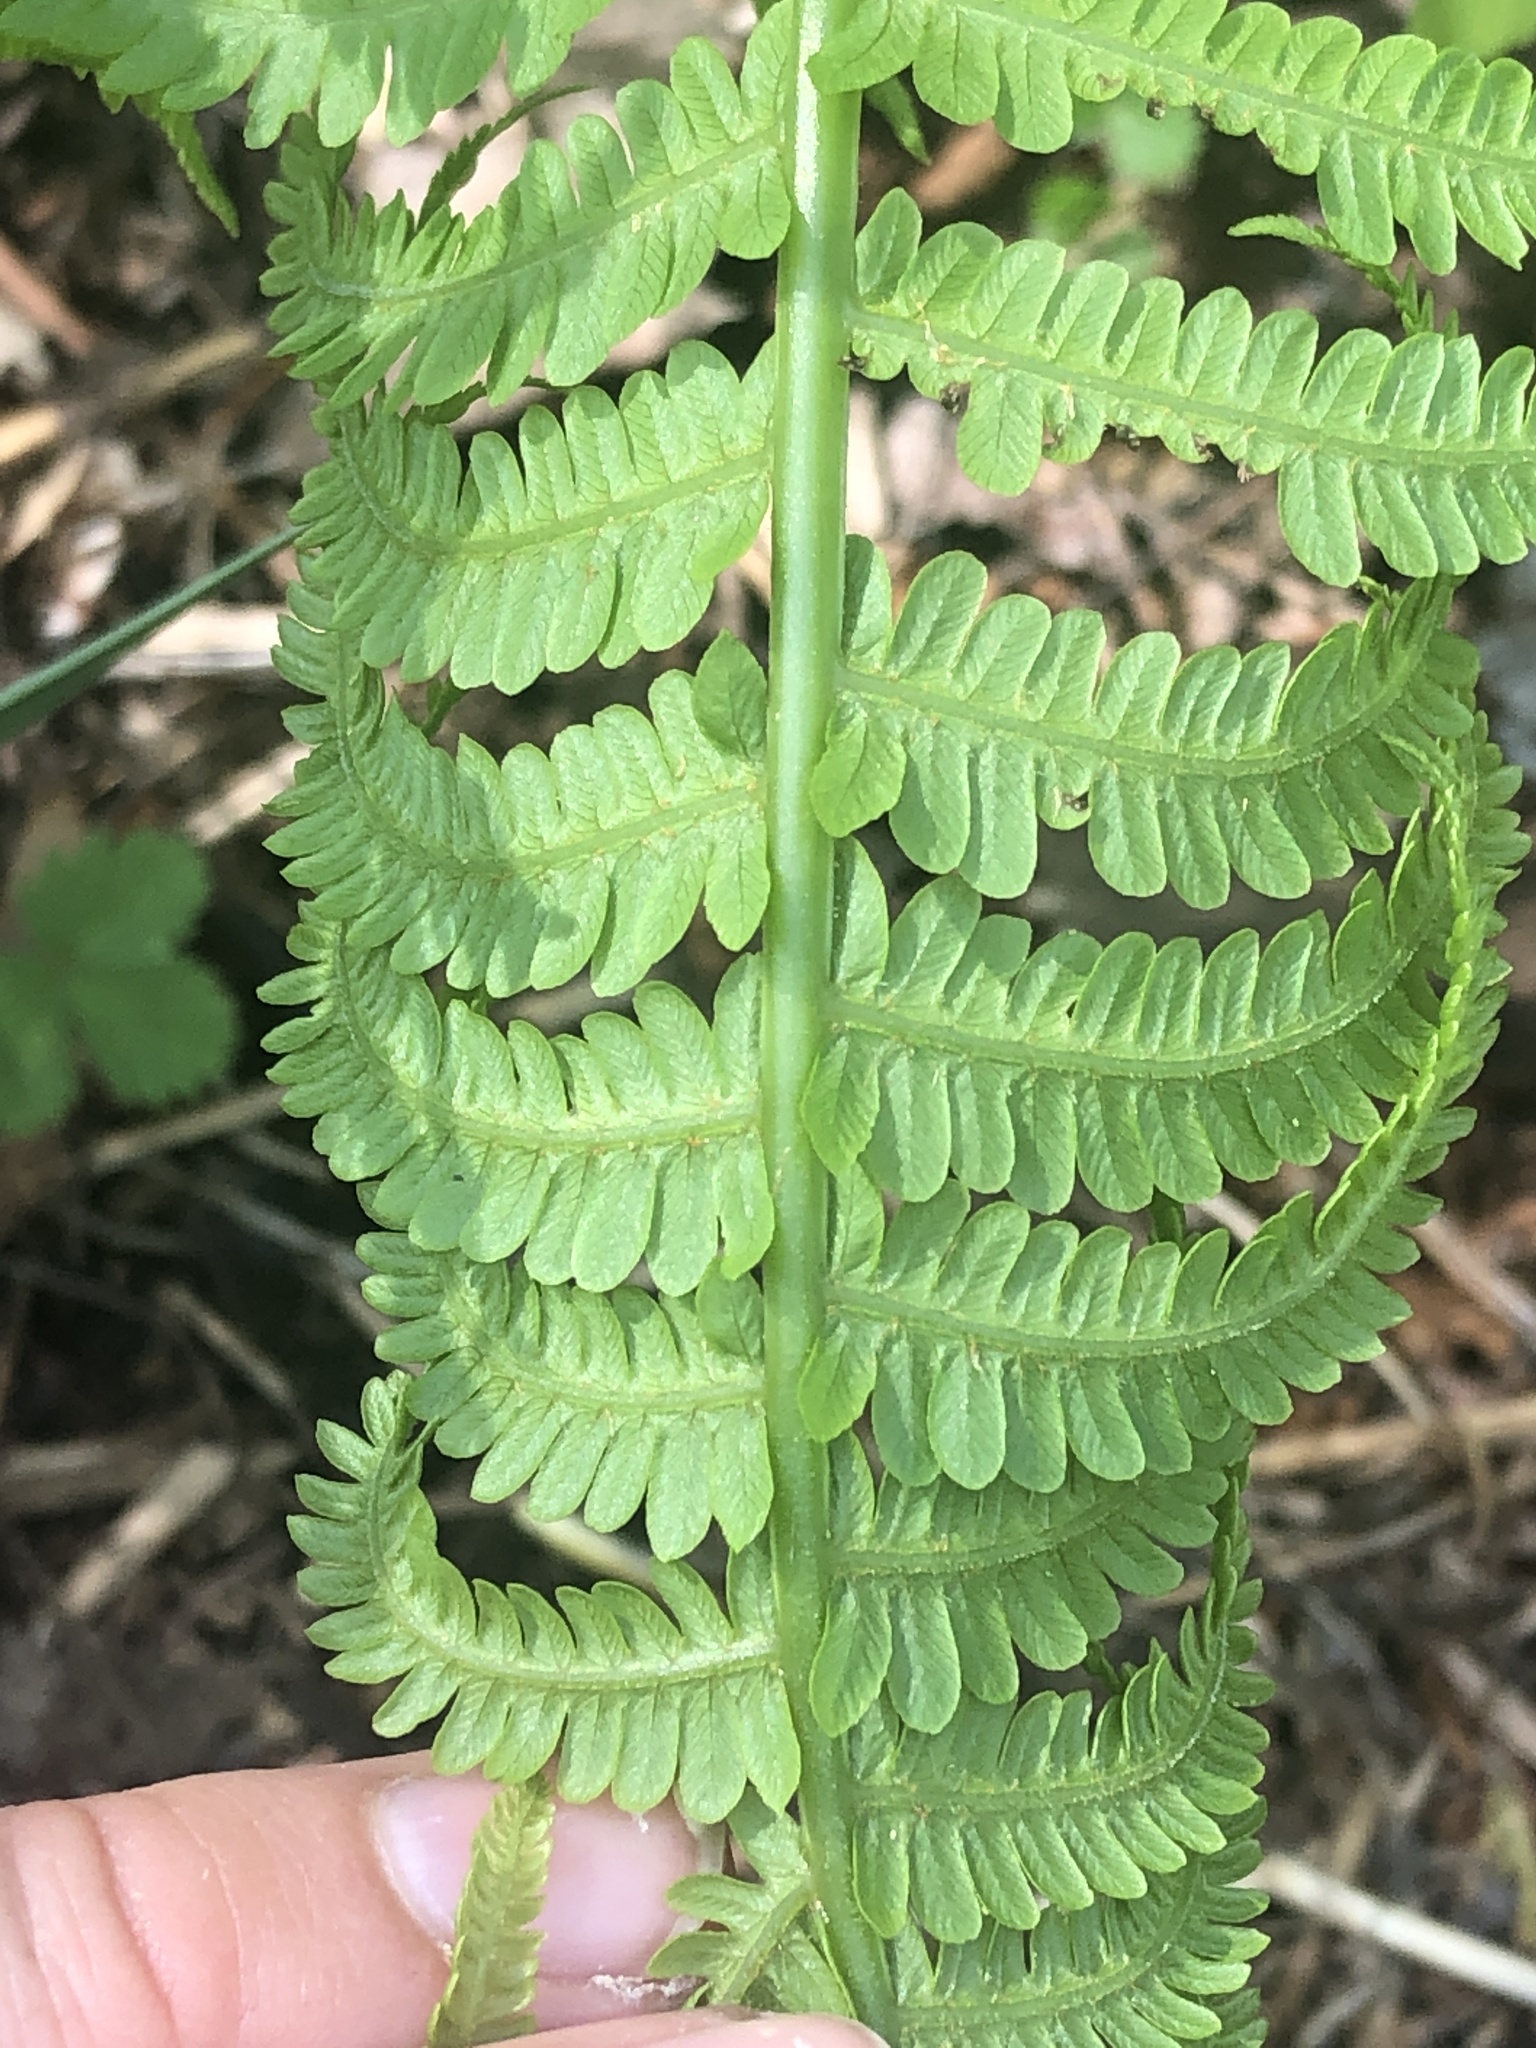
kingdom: Plantae
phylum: Tracheophyta
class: Polypodiopsida
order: Polypodiales
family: Onocleaceae
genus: Matteuccia
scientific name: Matteuccia struthiopteris
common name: Ostrich fern
